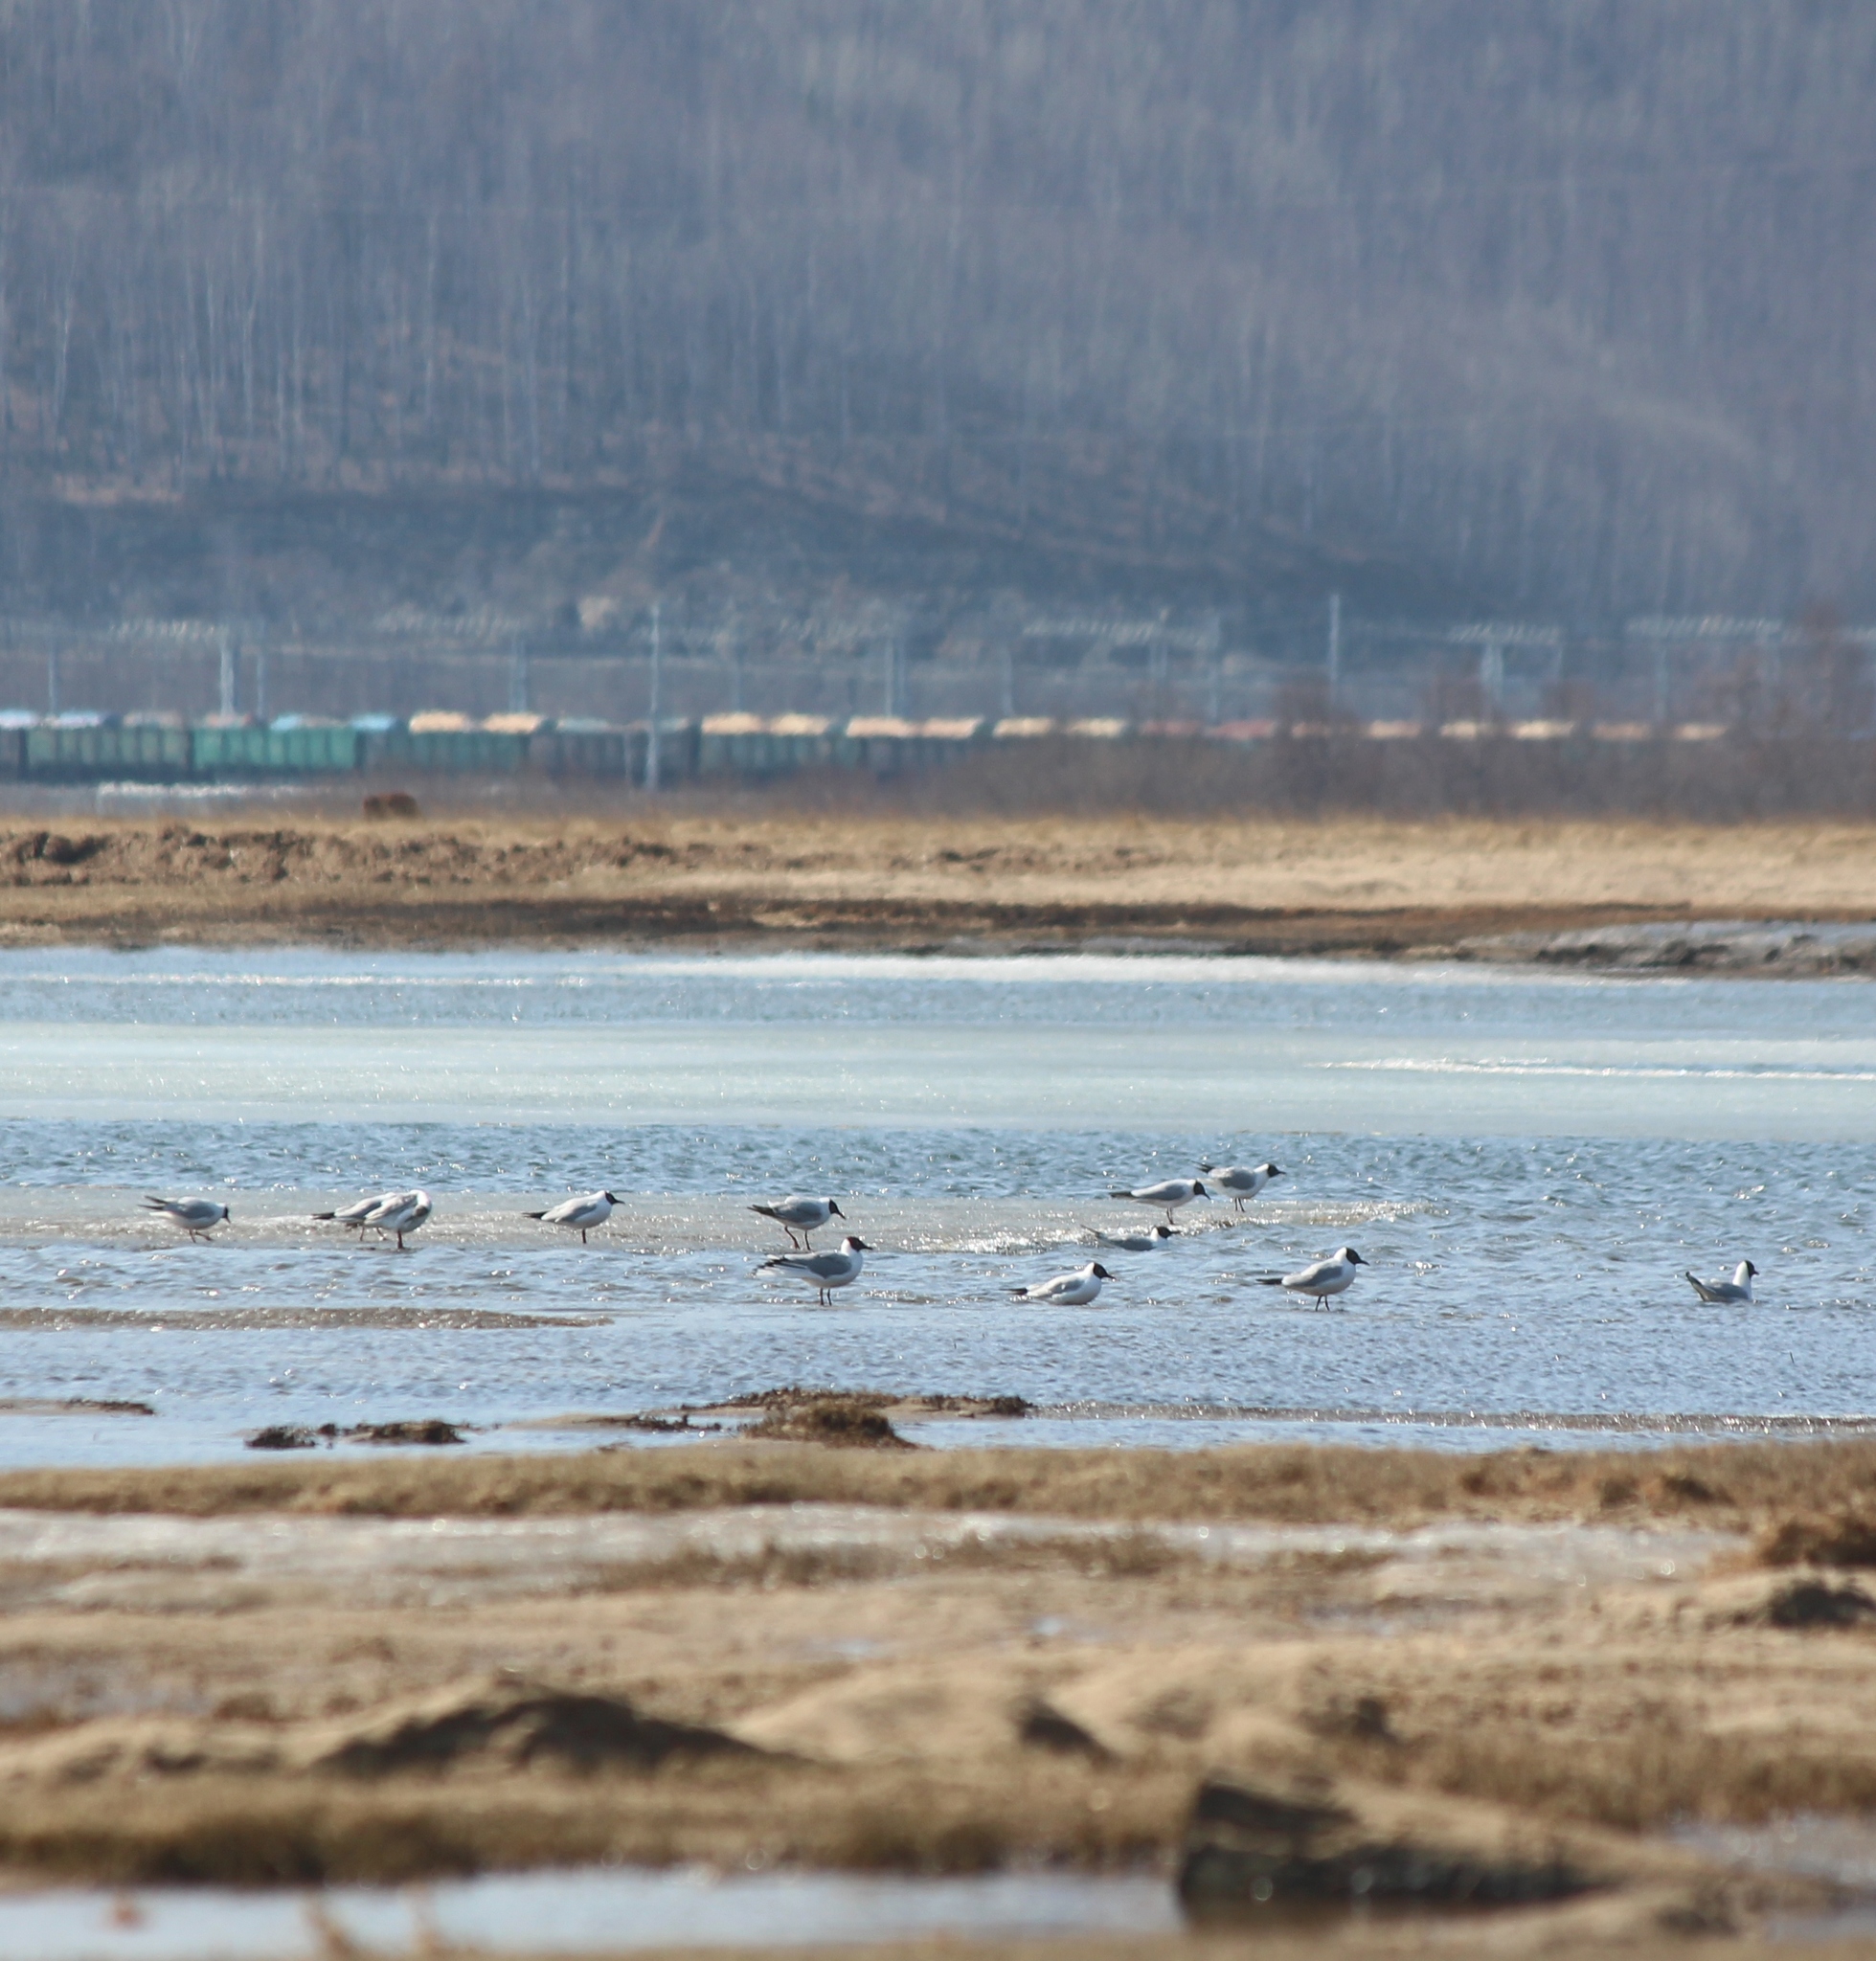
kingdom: Animalia
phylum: Chordata
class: Aves
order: Charadriiformes
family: Laridae
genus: Chroicocephalus
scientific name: Chroicocephalus ridibundus
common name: Black-headed gull
